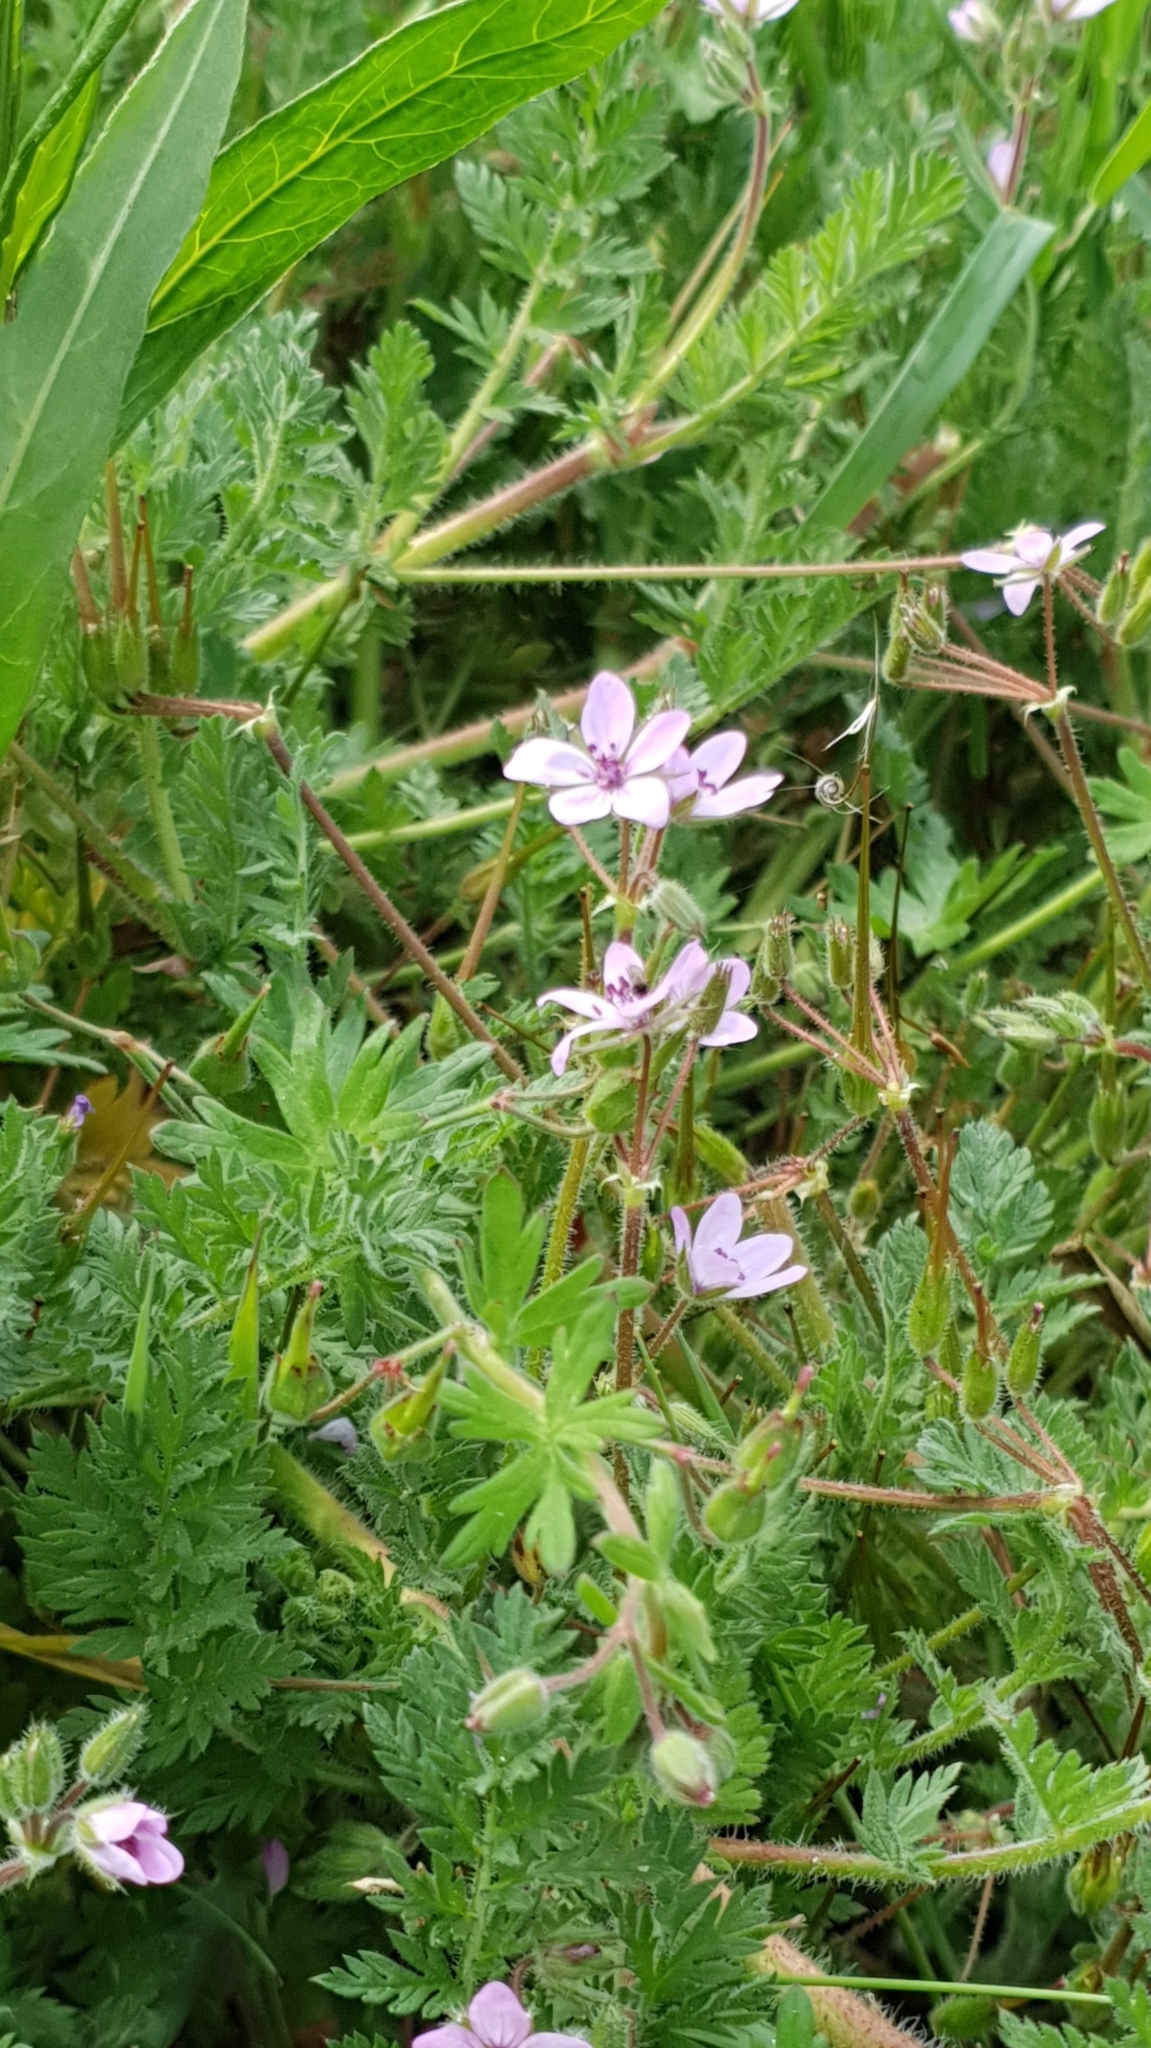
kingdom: Plantae
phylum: Tracheophyta
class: Magnoliopsida
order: Geraniales
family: Geraniaceae
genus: Erodium
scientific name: Erodium cicutarium
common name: Common stork's-bill
